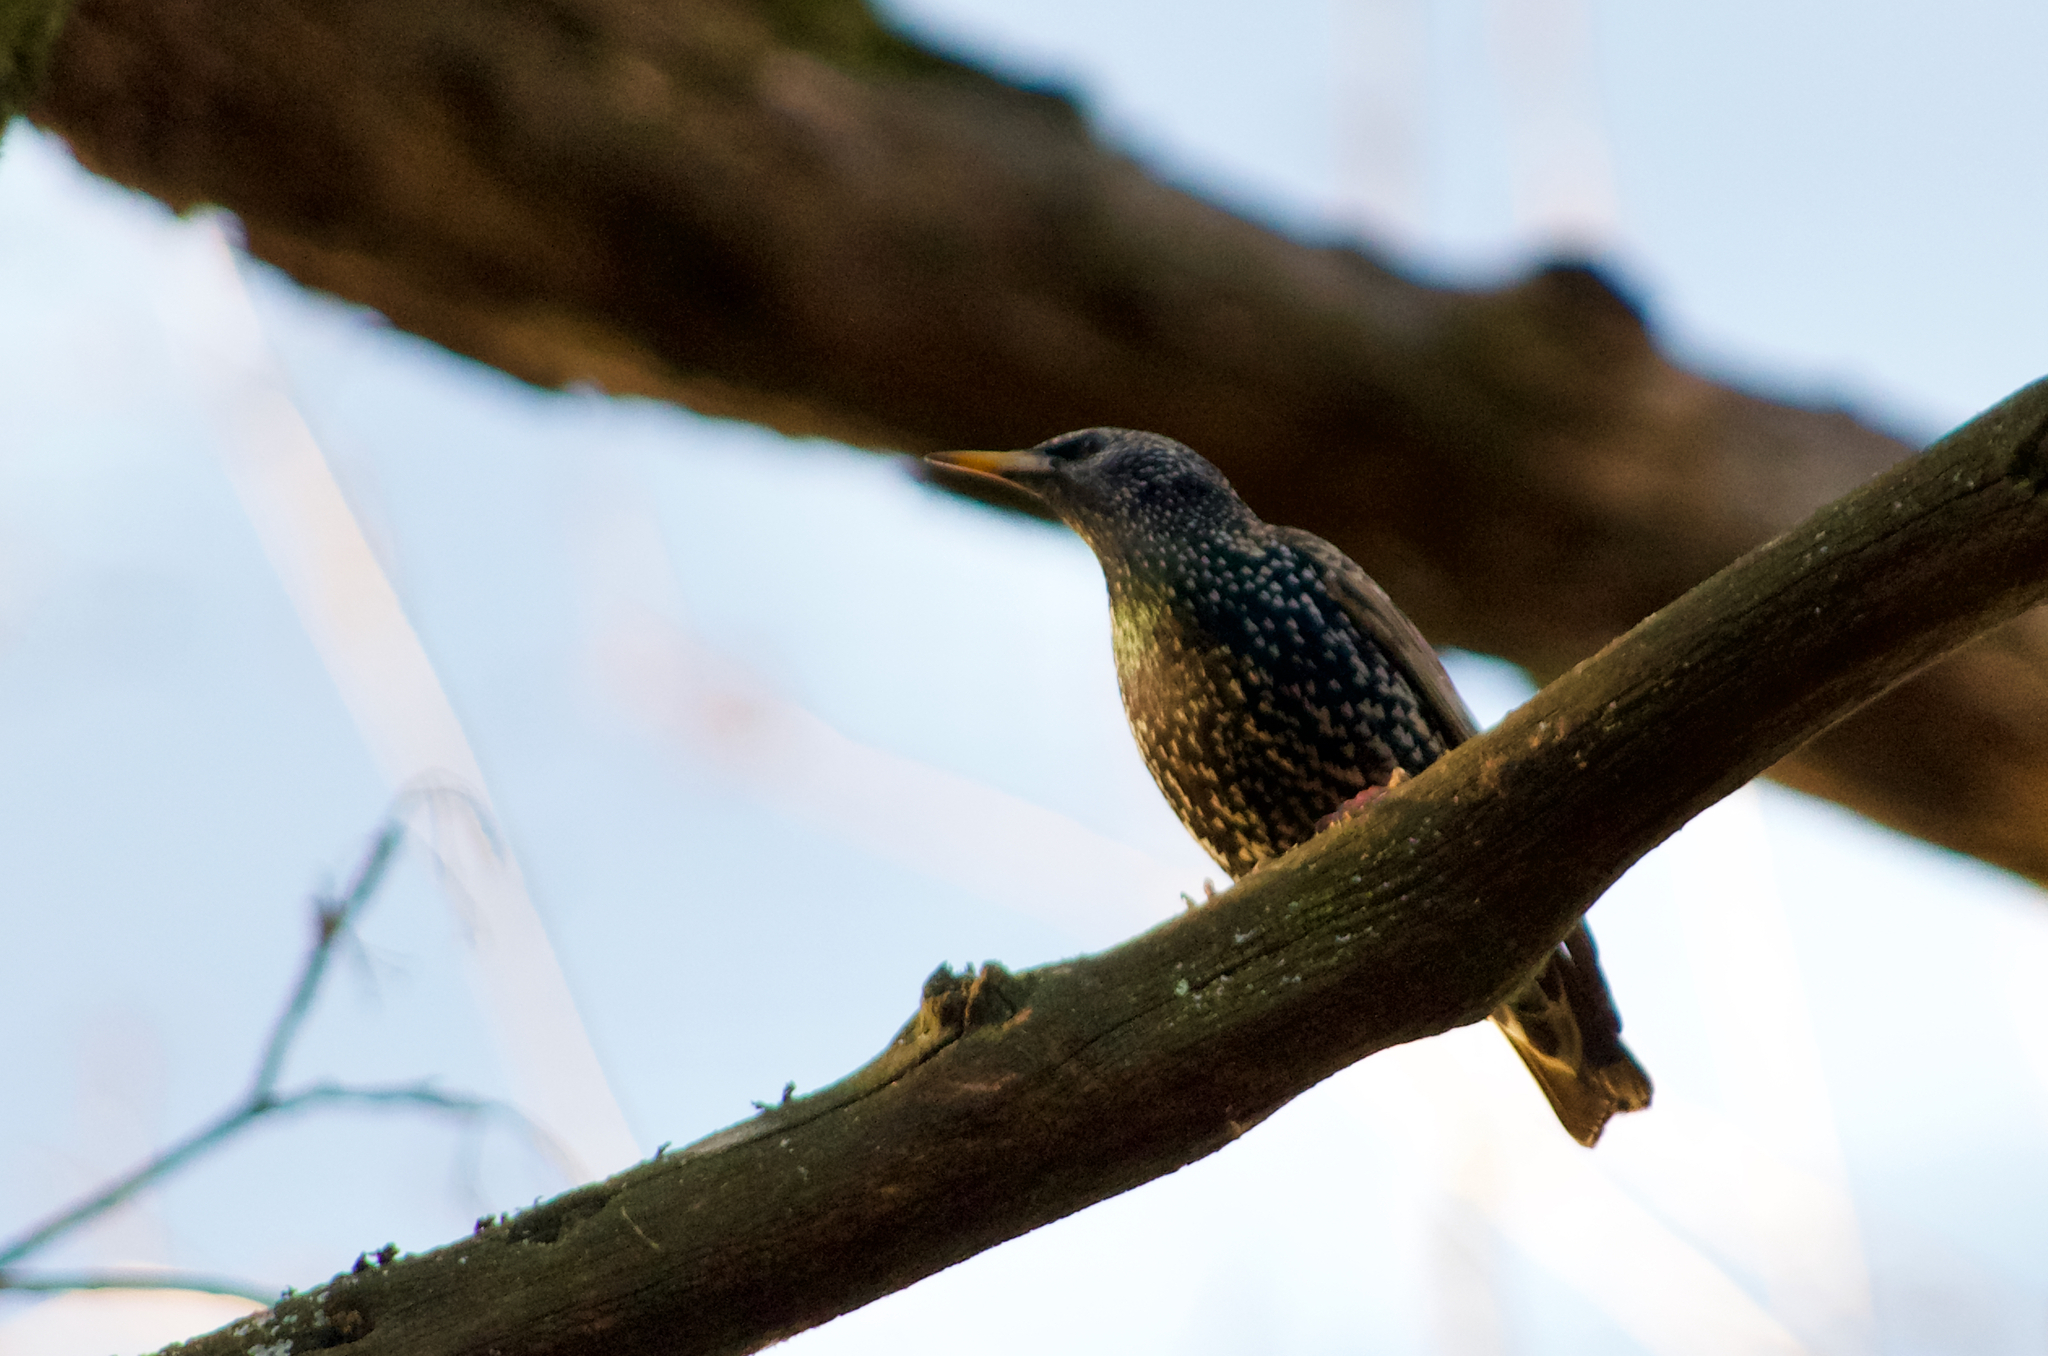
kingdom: Animalia
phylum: Chordata
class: Aves
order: Passeriformes
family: Sturnidae
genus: Sturnus
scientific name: Sturnus vulgaris
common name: Common starling
